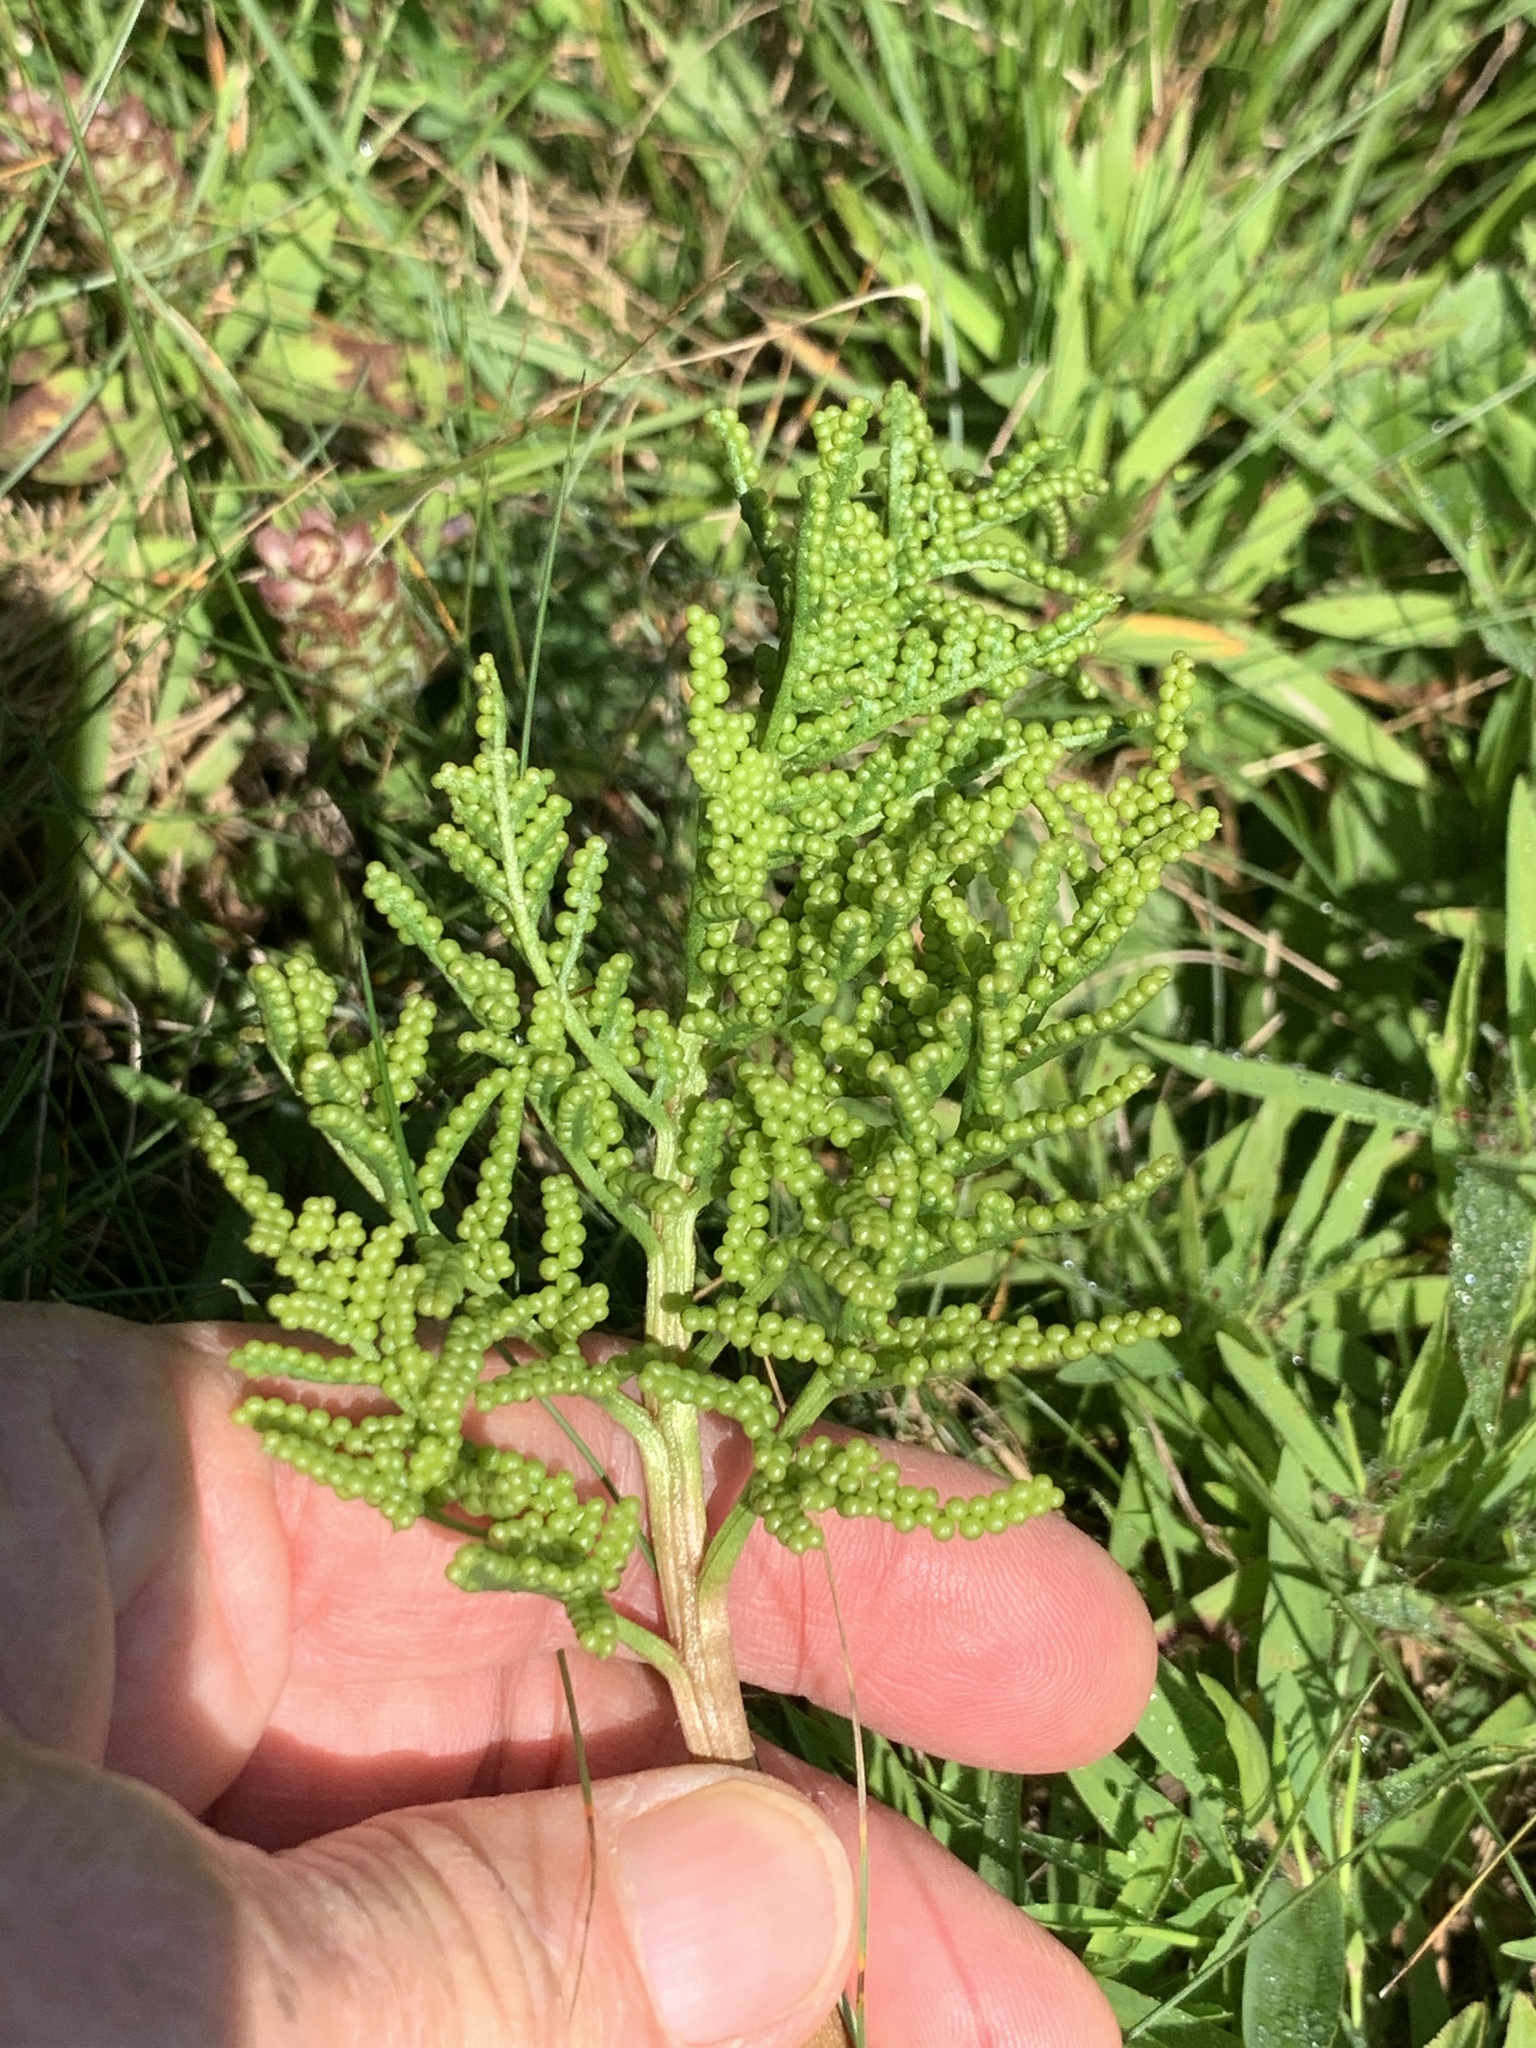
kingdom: Plantae
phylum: Tracheophyta
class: Polypodiopsida
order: Ophioglossales
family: Ophioglossaceae
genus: Sceptridium
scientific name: Sceptridium dissectum
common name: Cut-leaved grapefern
